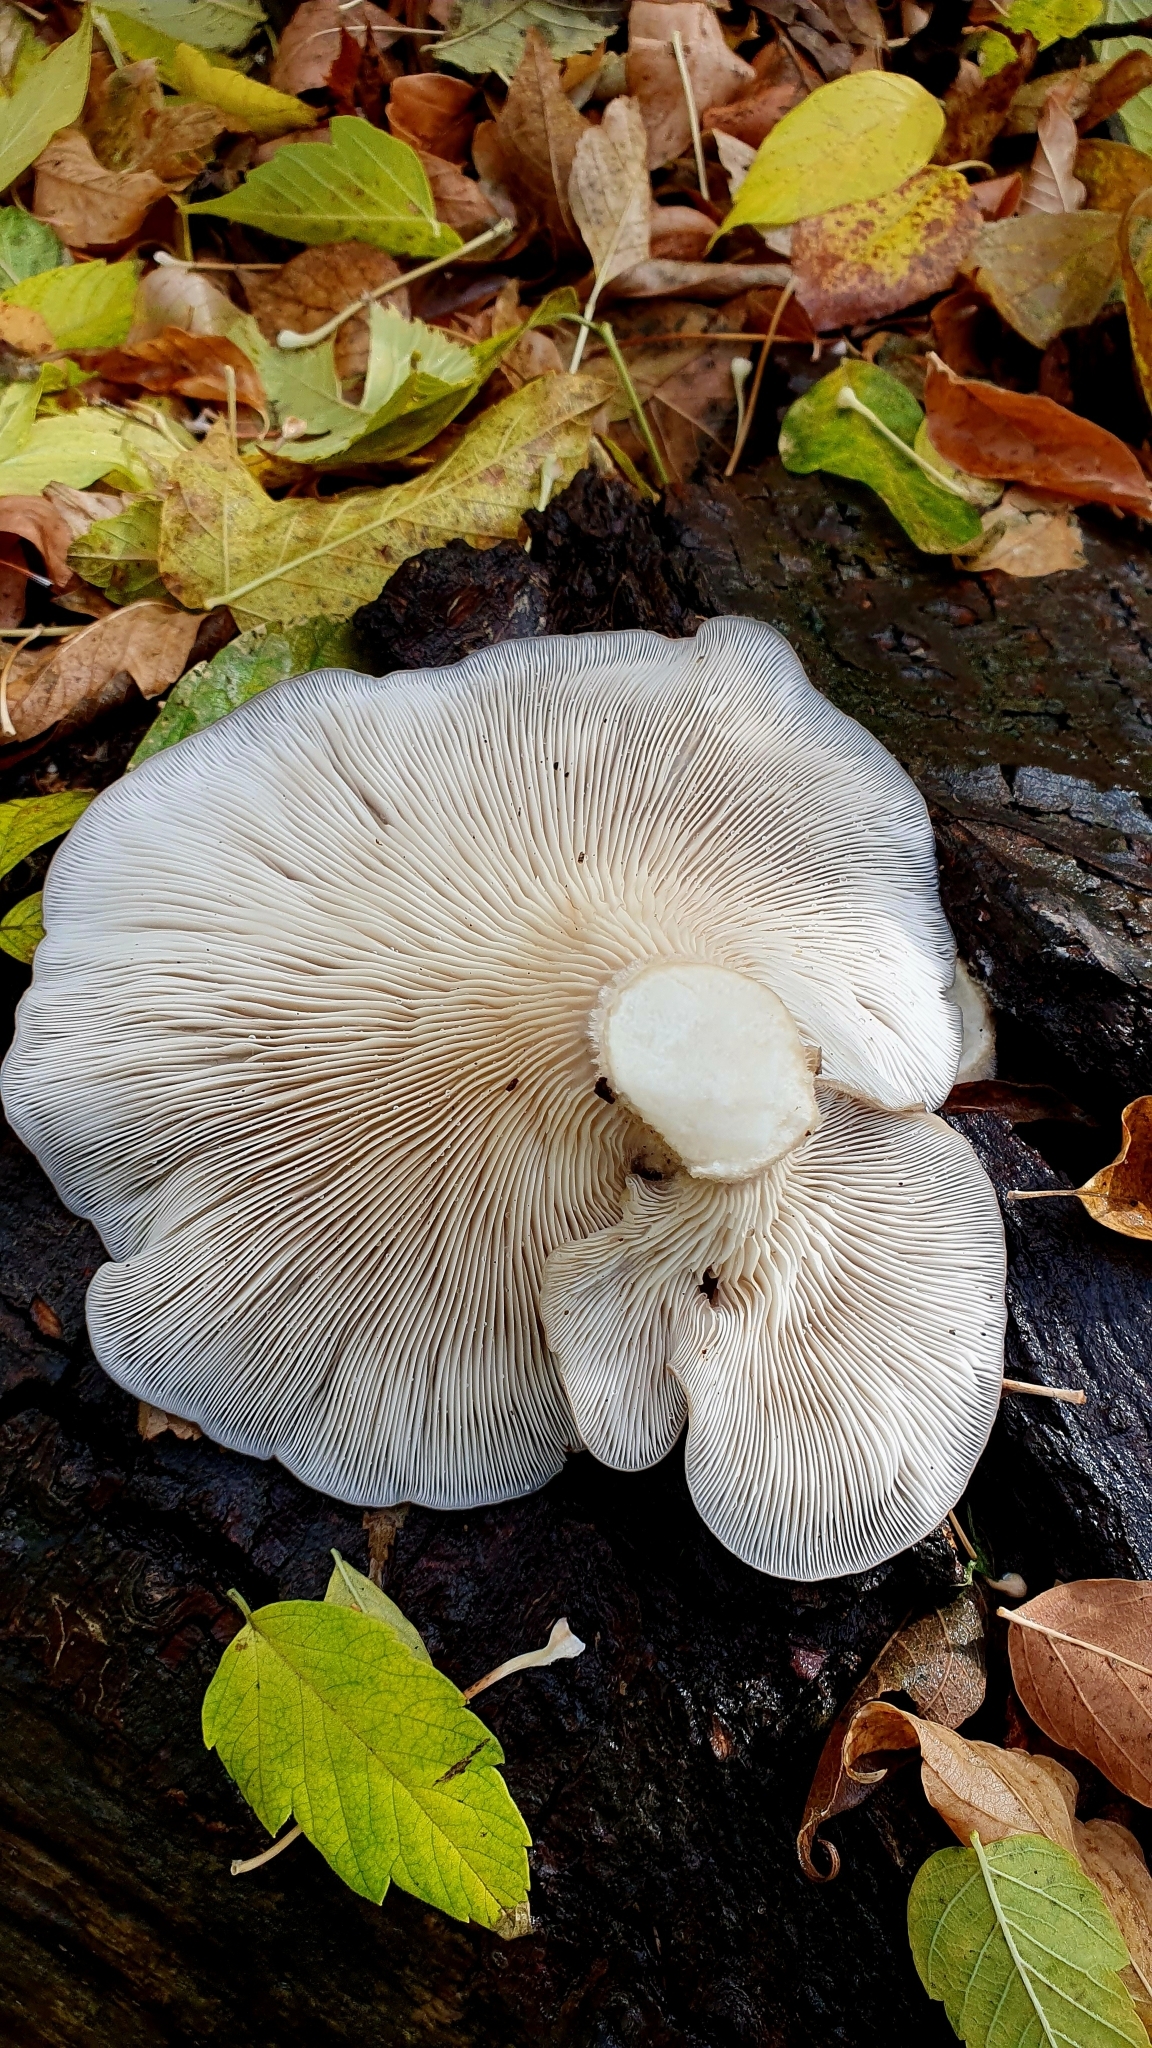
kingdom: Fungi
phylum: Basidiomycota
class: Agaricomycetes
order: Agaricales
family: Pleurotaceae
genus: Pleurotus
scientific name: Pleurotus pulmonarius
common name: Pale oyster
